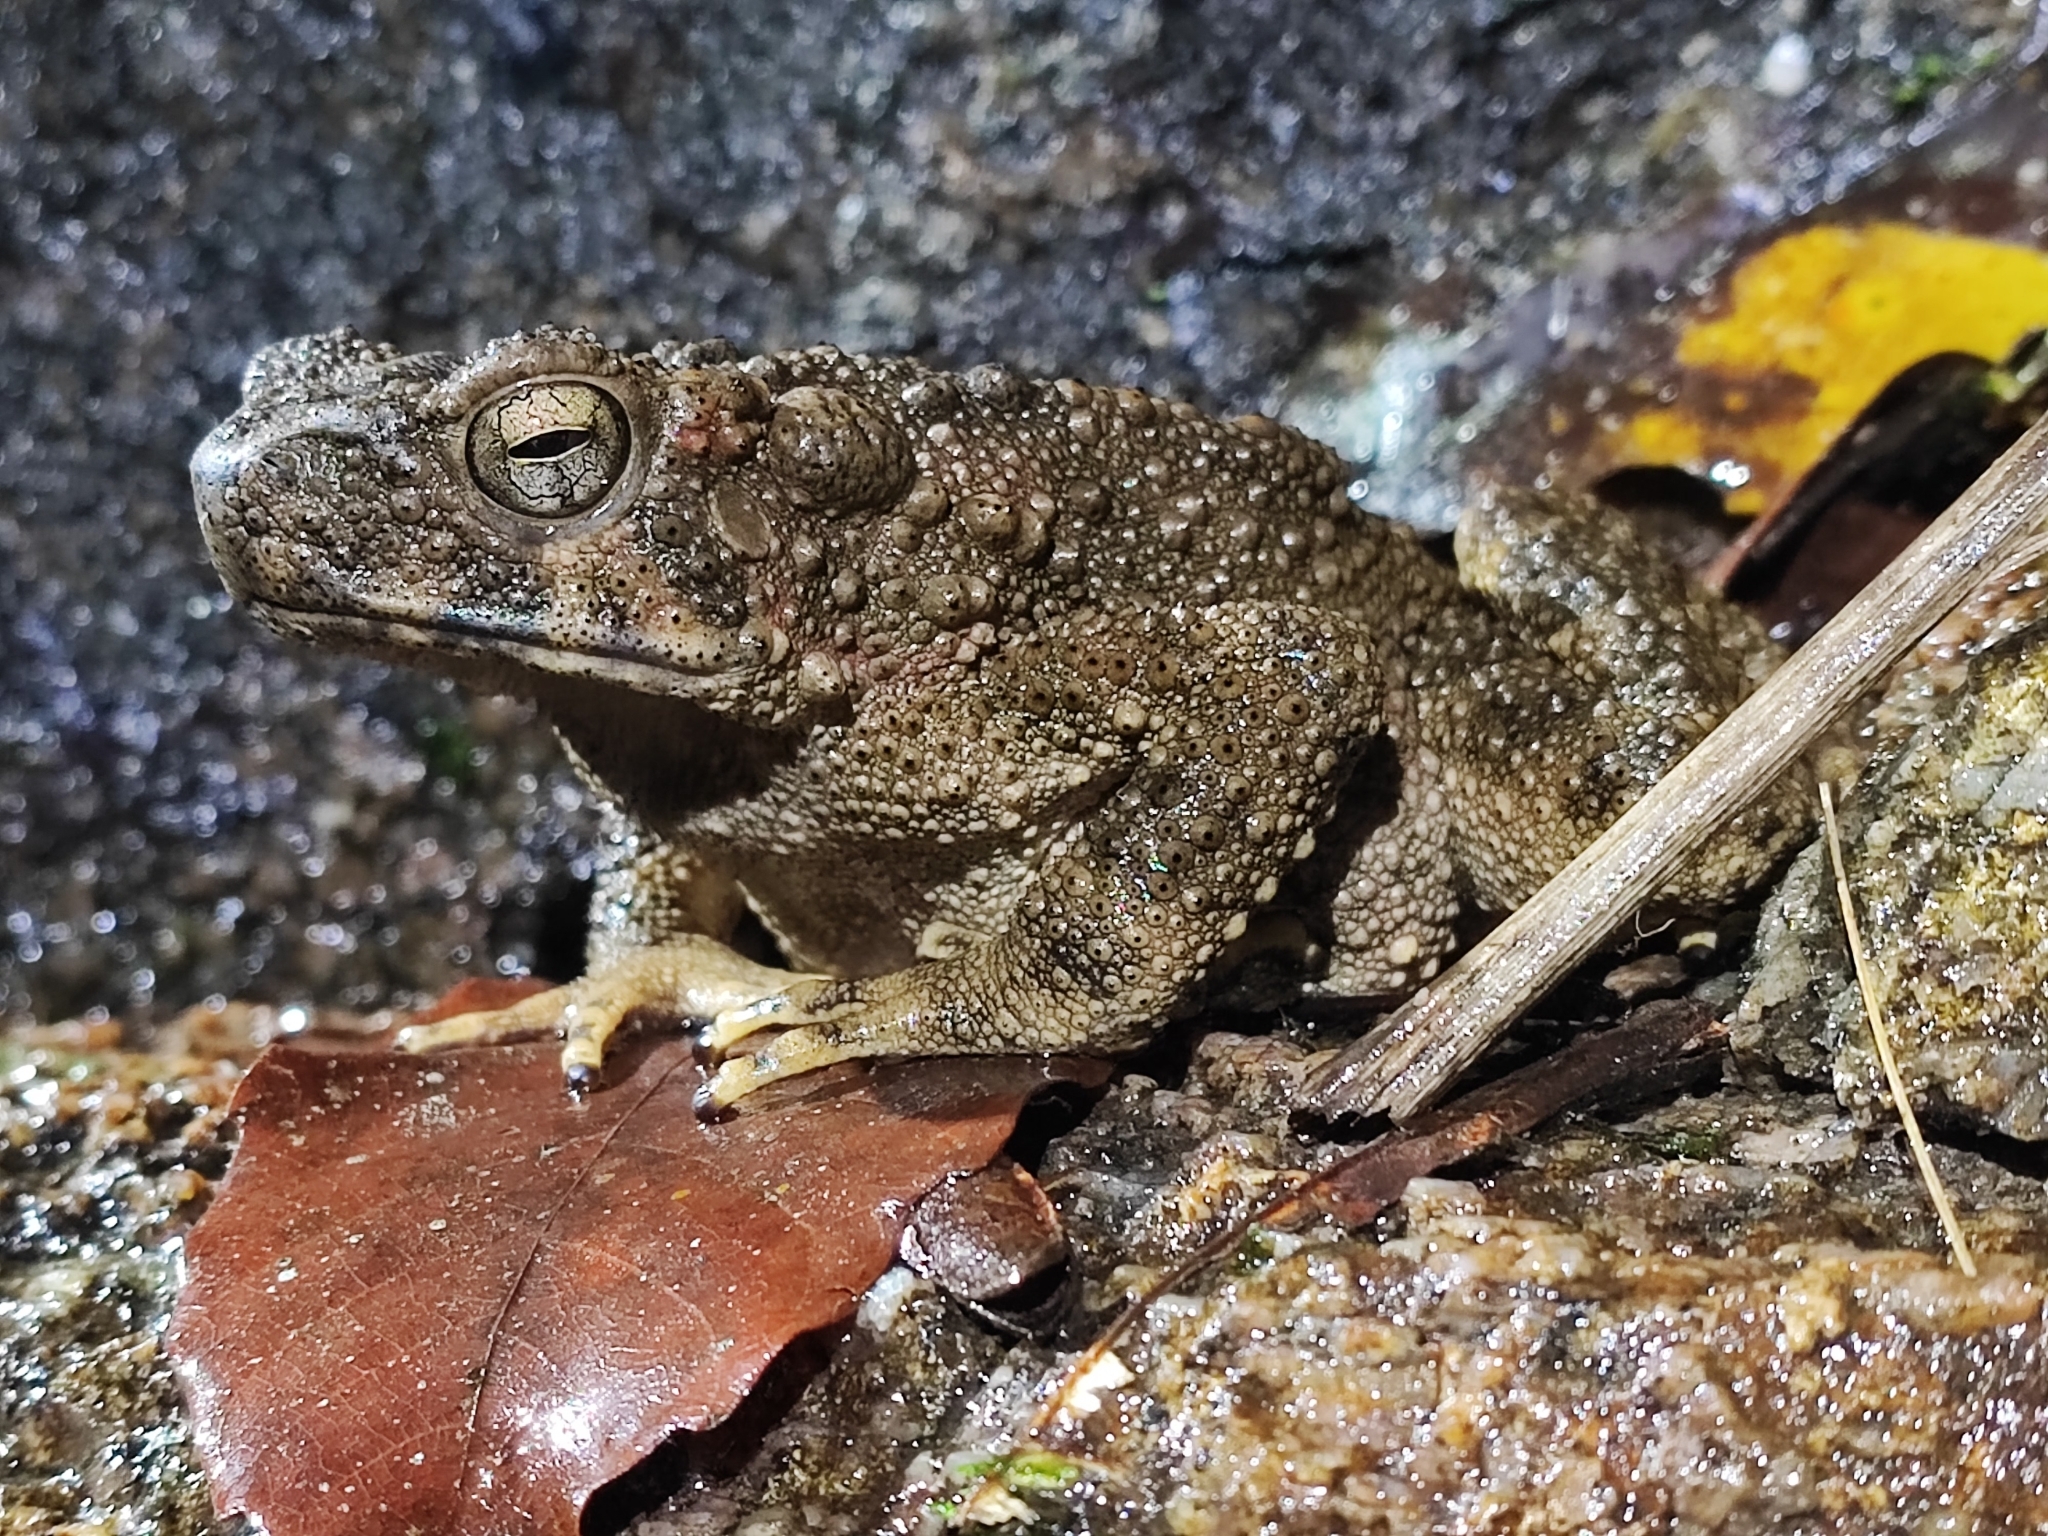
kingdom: Animalia
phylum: Chordata
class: Amphibia
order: Anura
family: Bufonidae
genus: Phrynoidis
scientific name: Phrynoidis asper
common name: Asian giant toad
